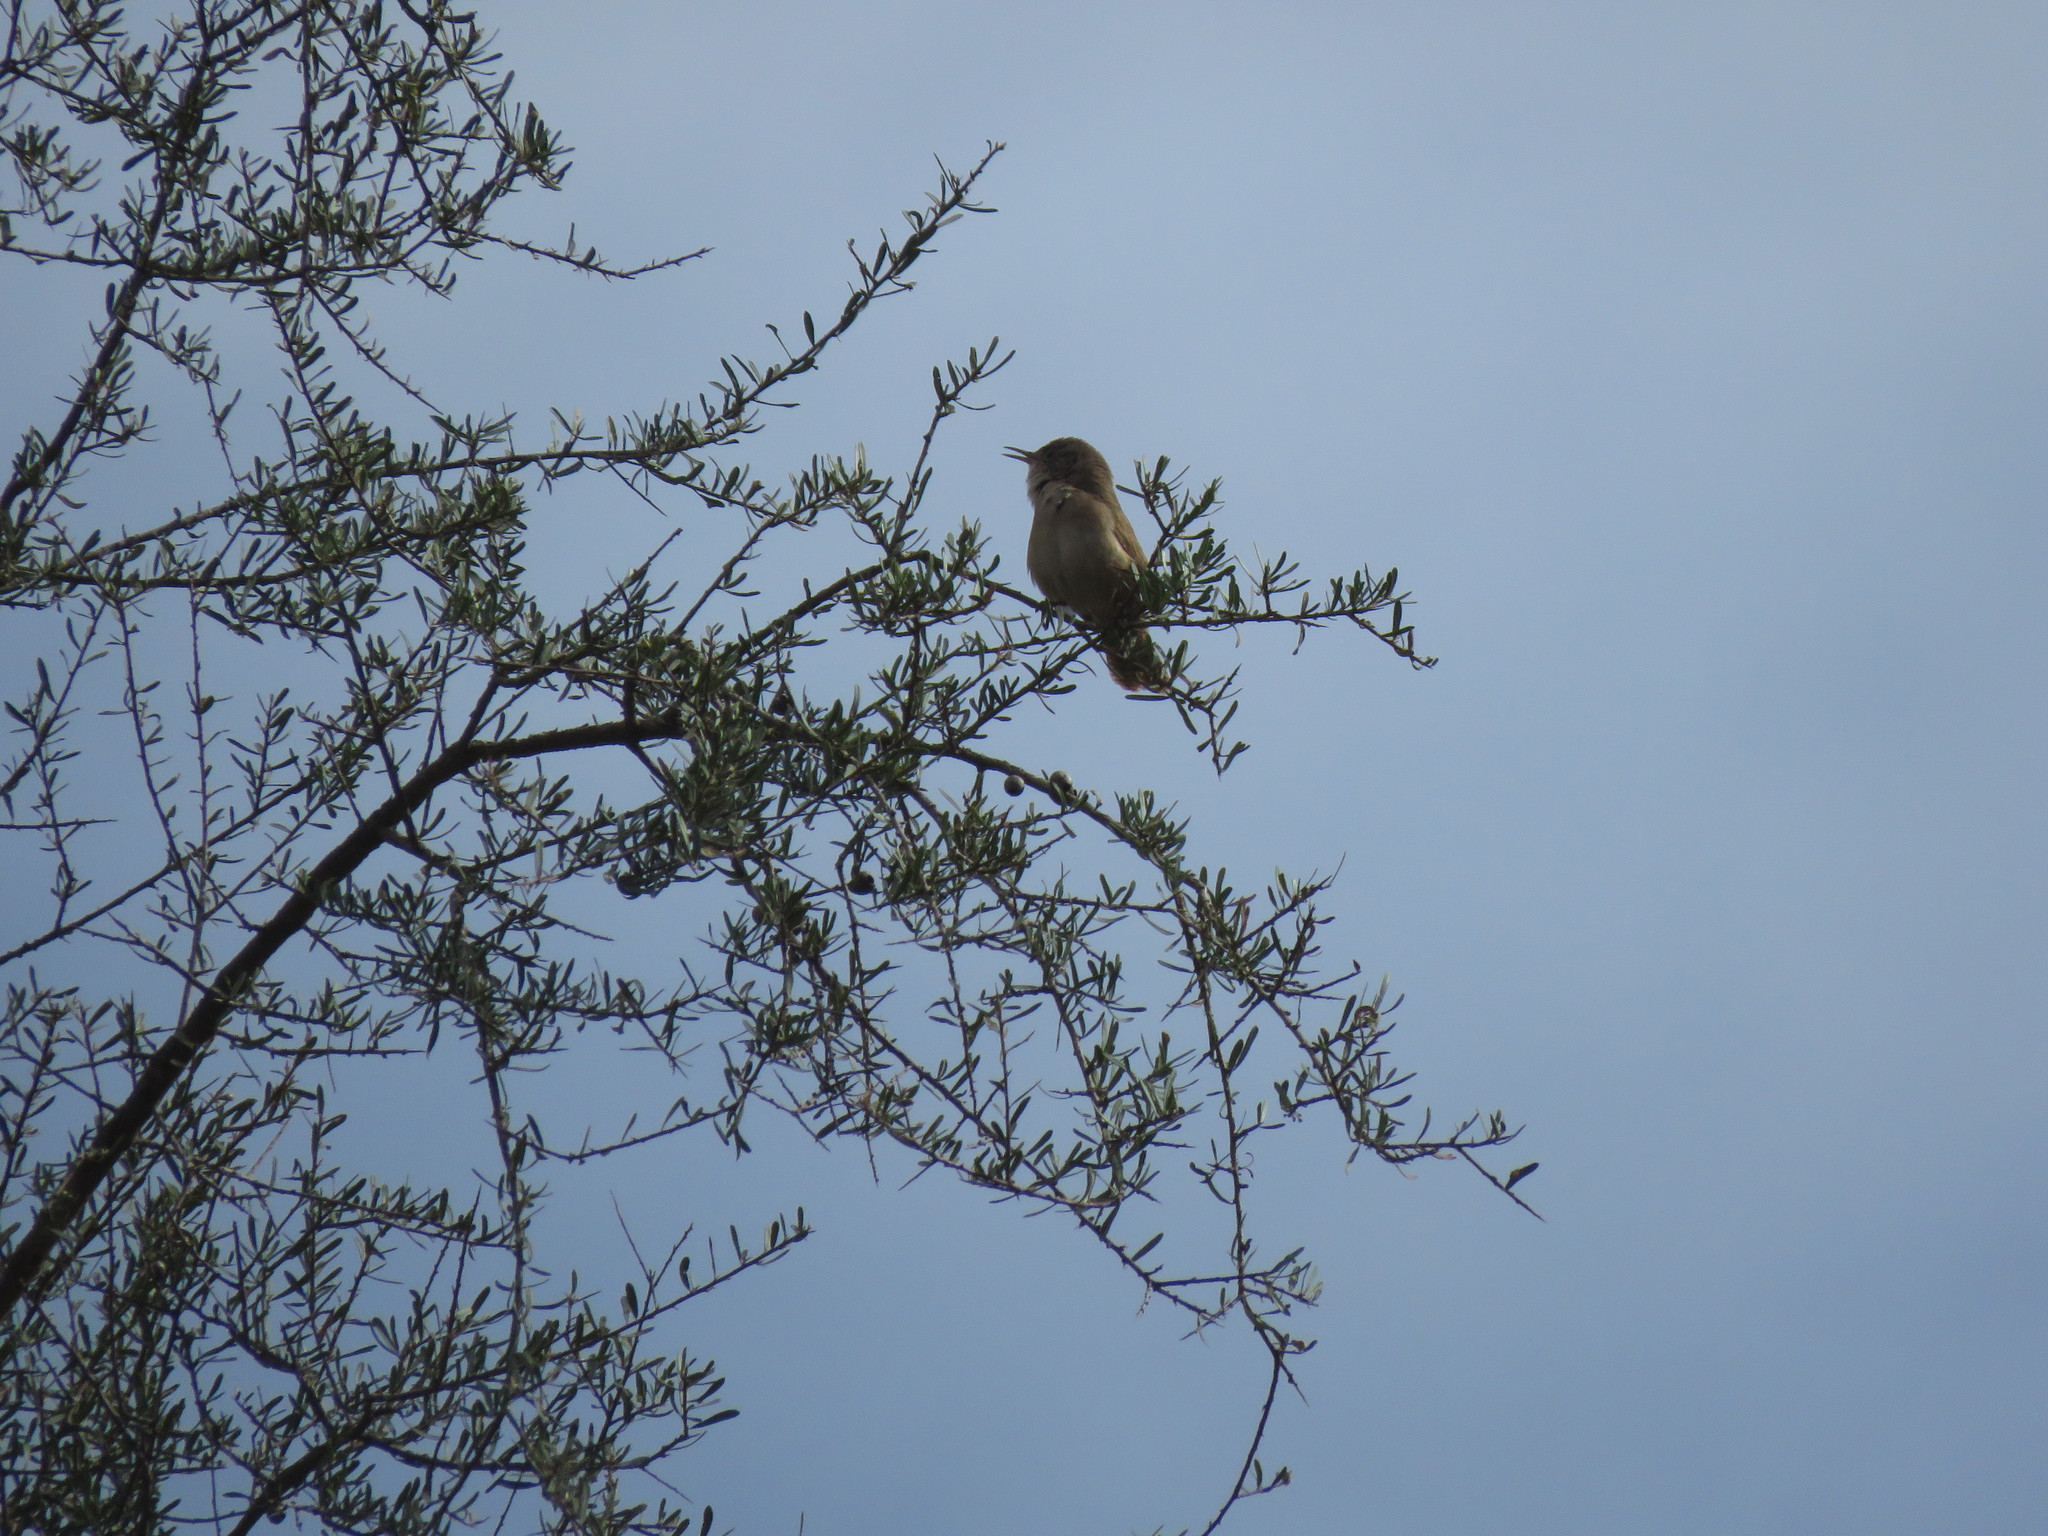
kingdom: Animalia
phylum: Chordata
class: Aves
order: Passeriformes
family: Troglodytidae
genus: Troglodytes
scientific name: Troglodytes aedon
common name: House wren
